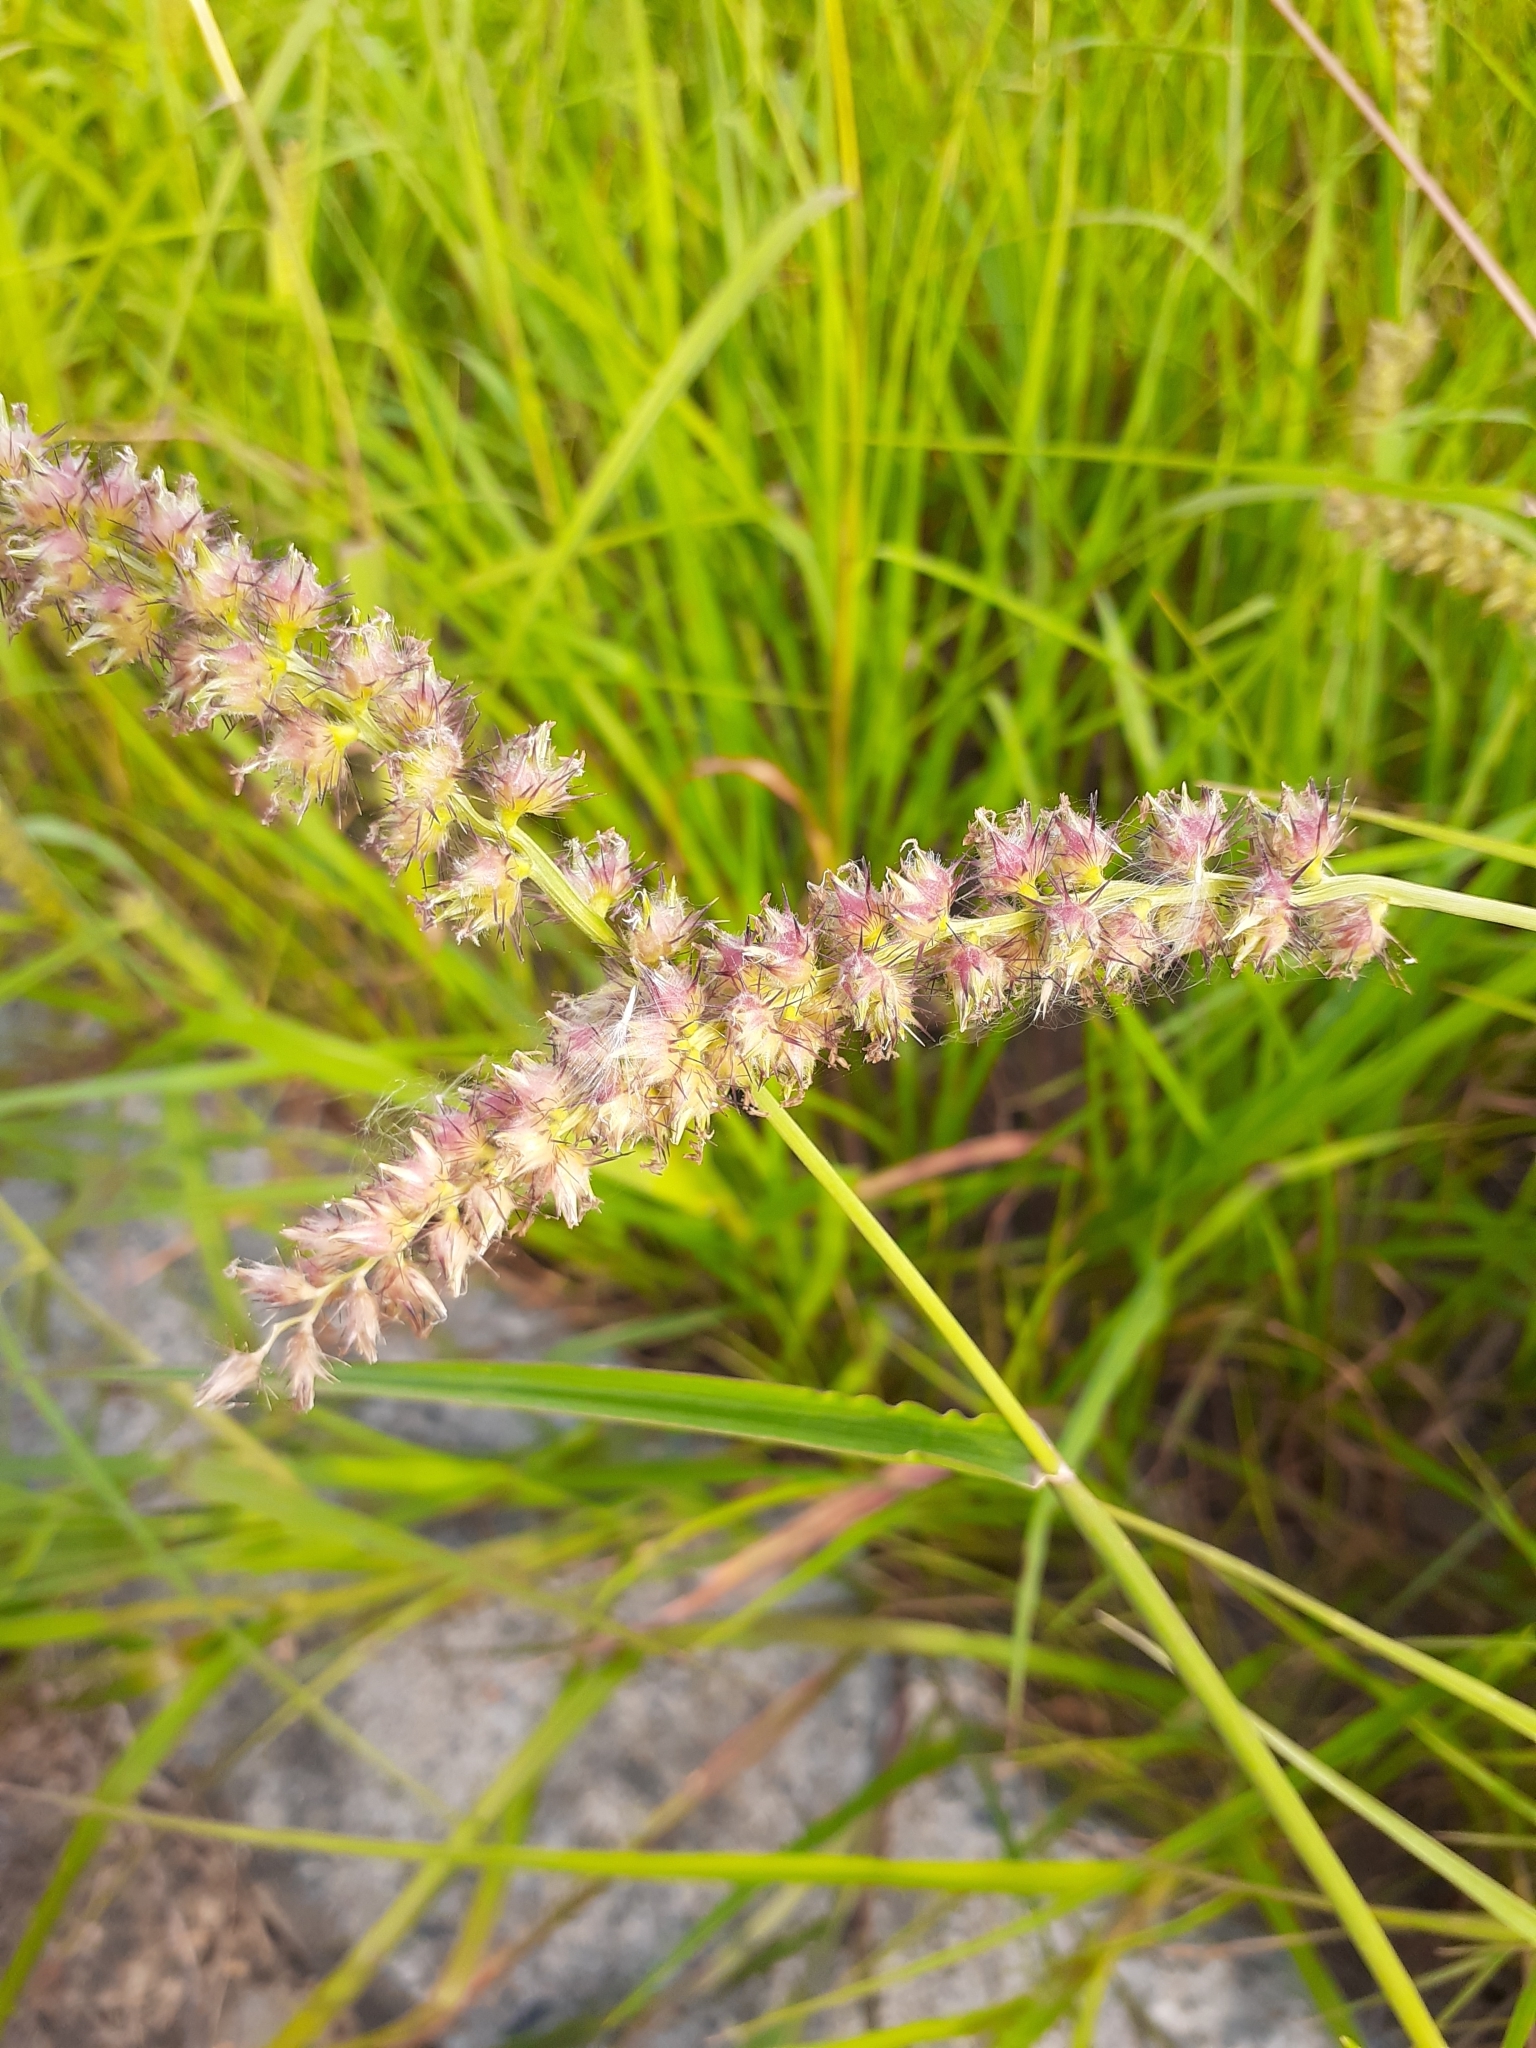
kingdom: Plantae
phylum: Tracheophyta
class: Liliopsida
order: Poales
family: Poaceae
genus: Cenchrus
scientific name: Cenchrus echinatus
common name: Southern sandbur
